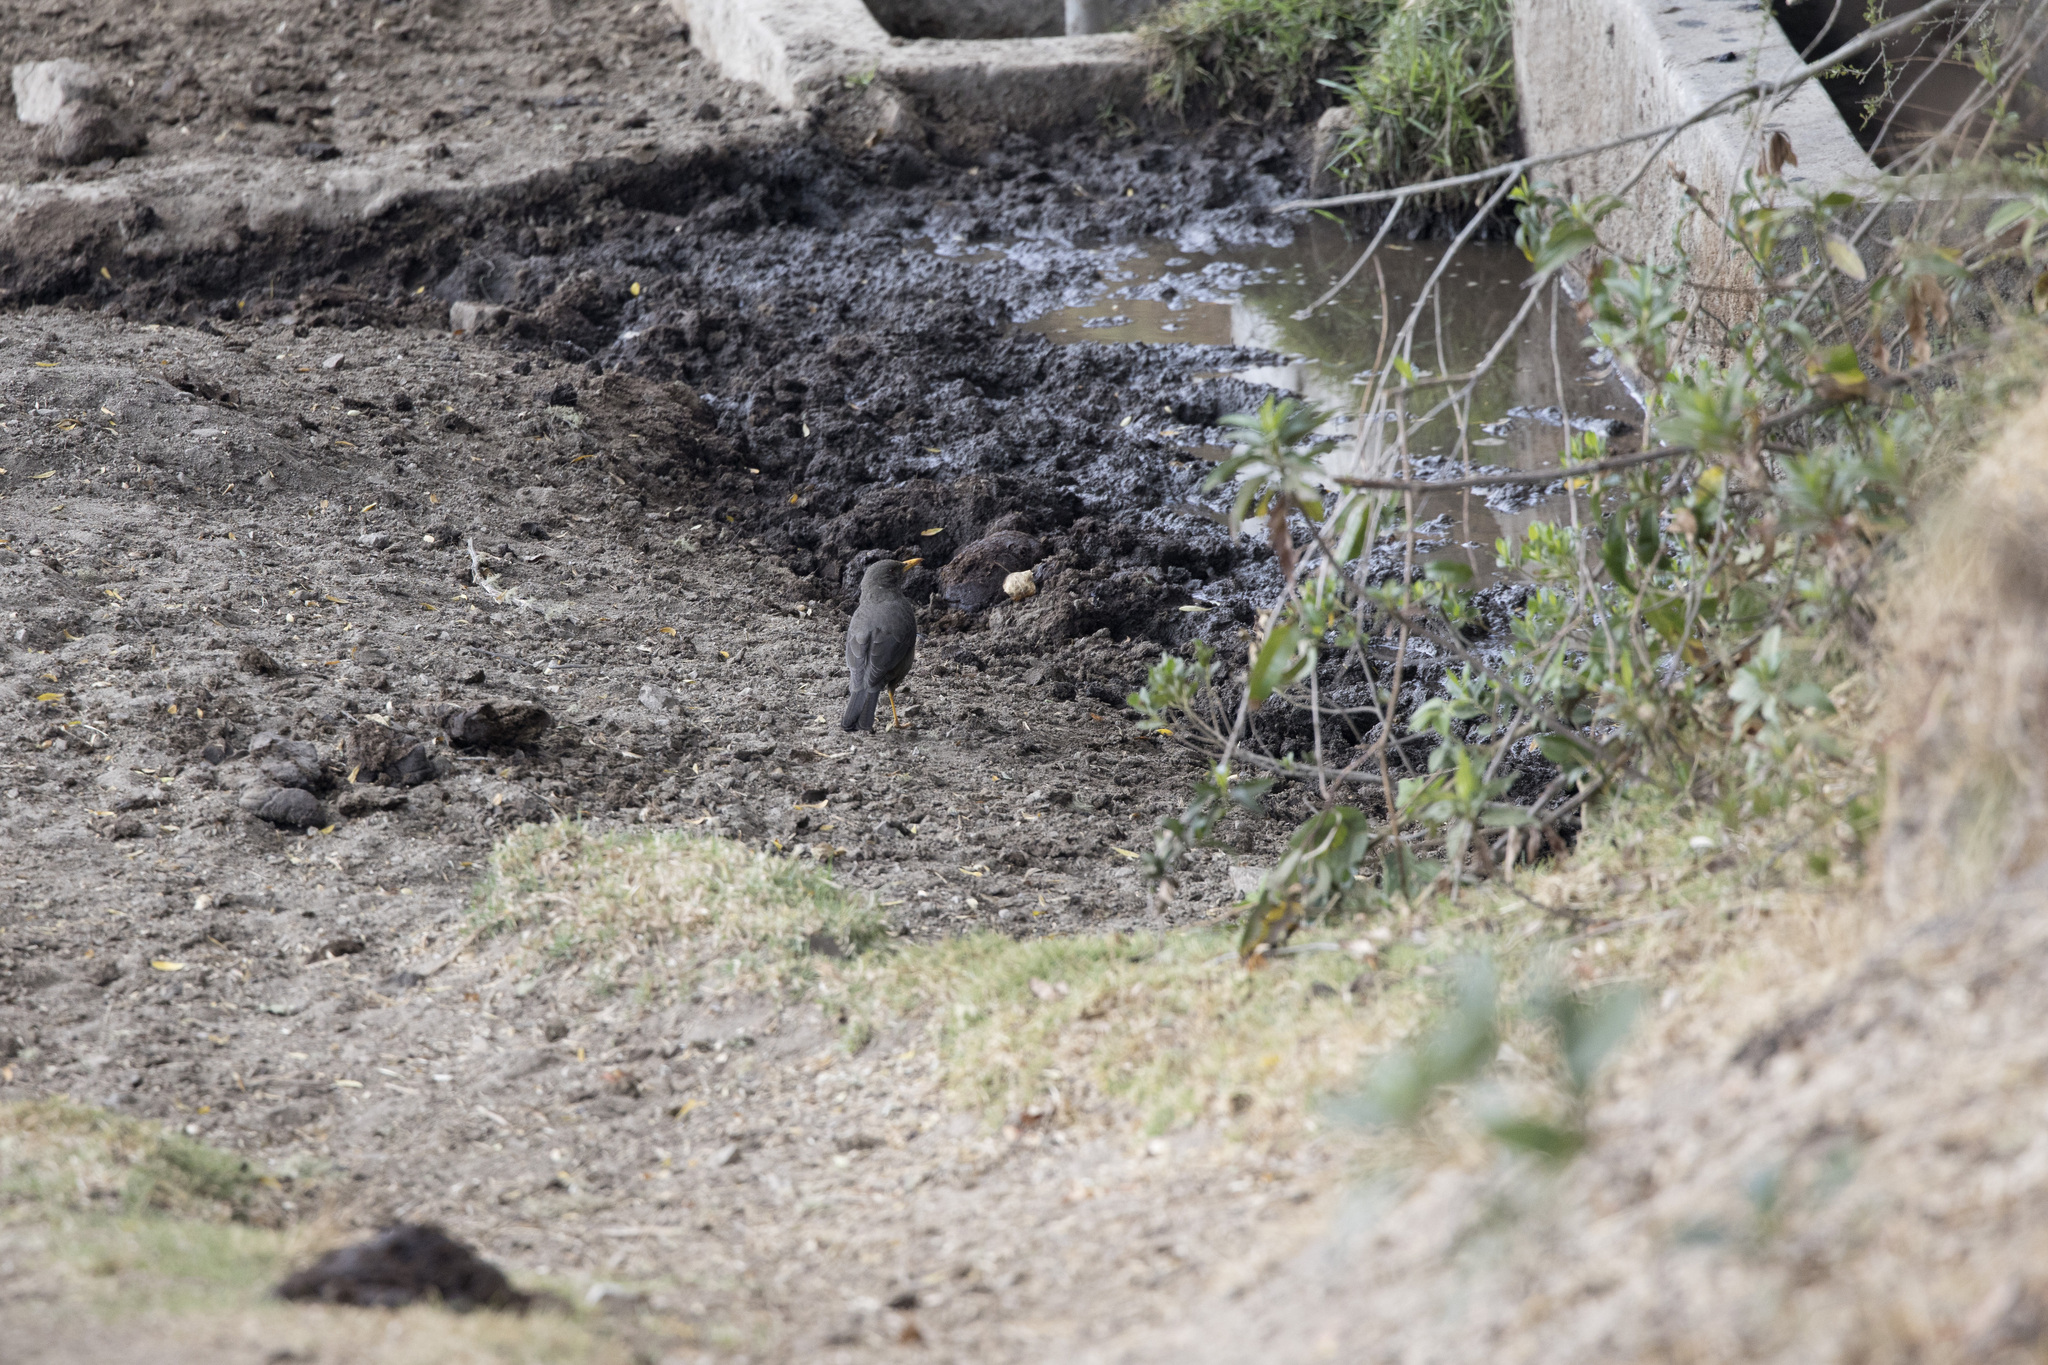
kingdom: Animalia
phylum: Chordata
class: Aves
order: Passeriformes
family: Turdidae
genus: Turdus
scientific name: Turdus chiguanco
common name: Chiguanco thrush
